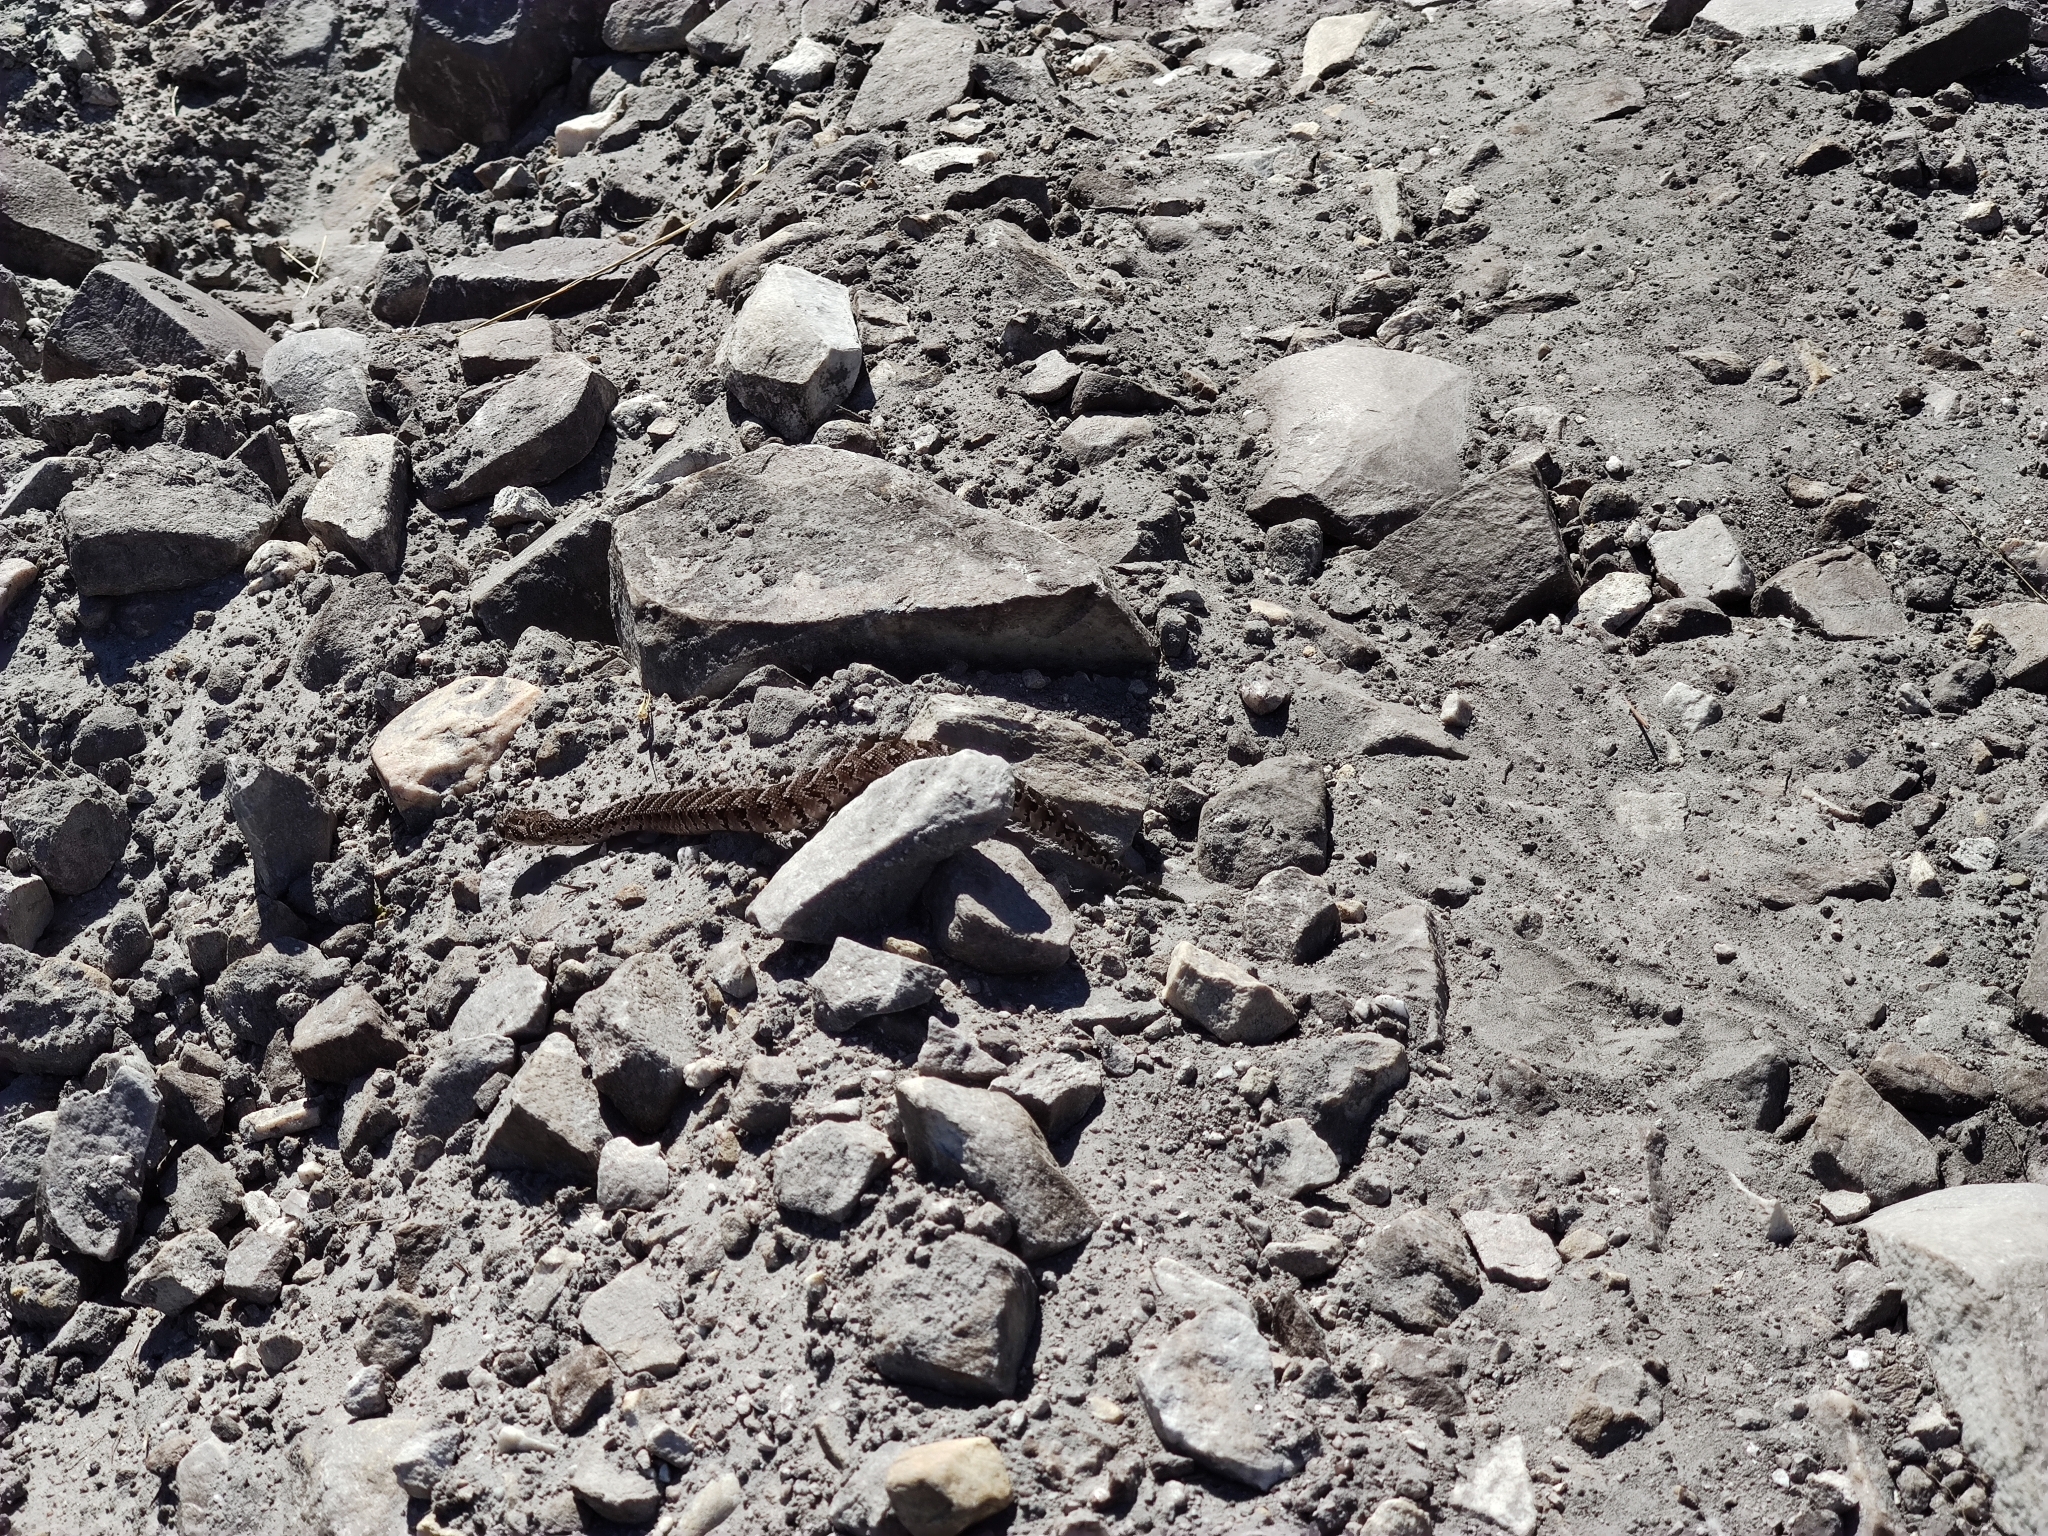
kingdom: Animalia
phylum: Chordata
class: Squamata
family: Viperidae
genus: Bitis
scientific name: Bitis arietans
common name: Puff adder
